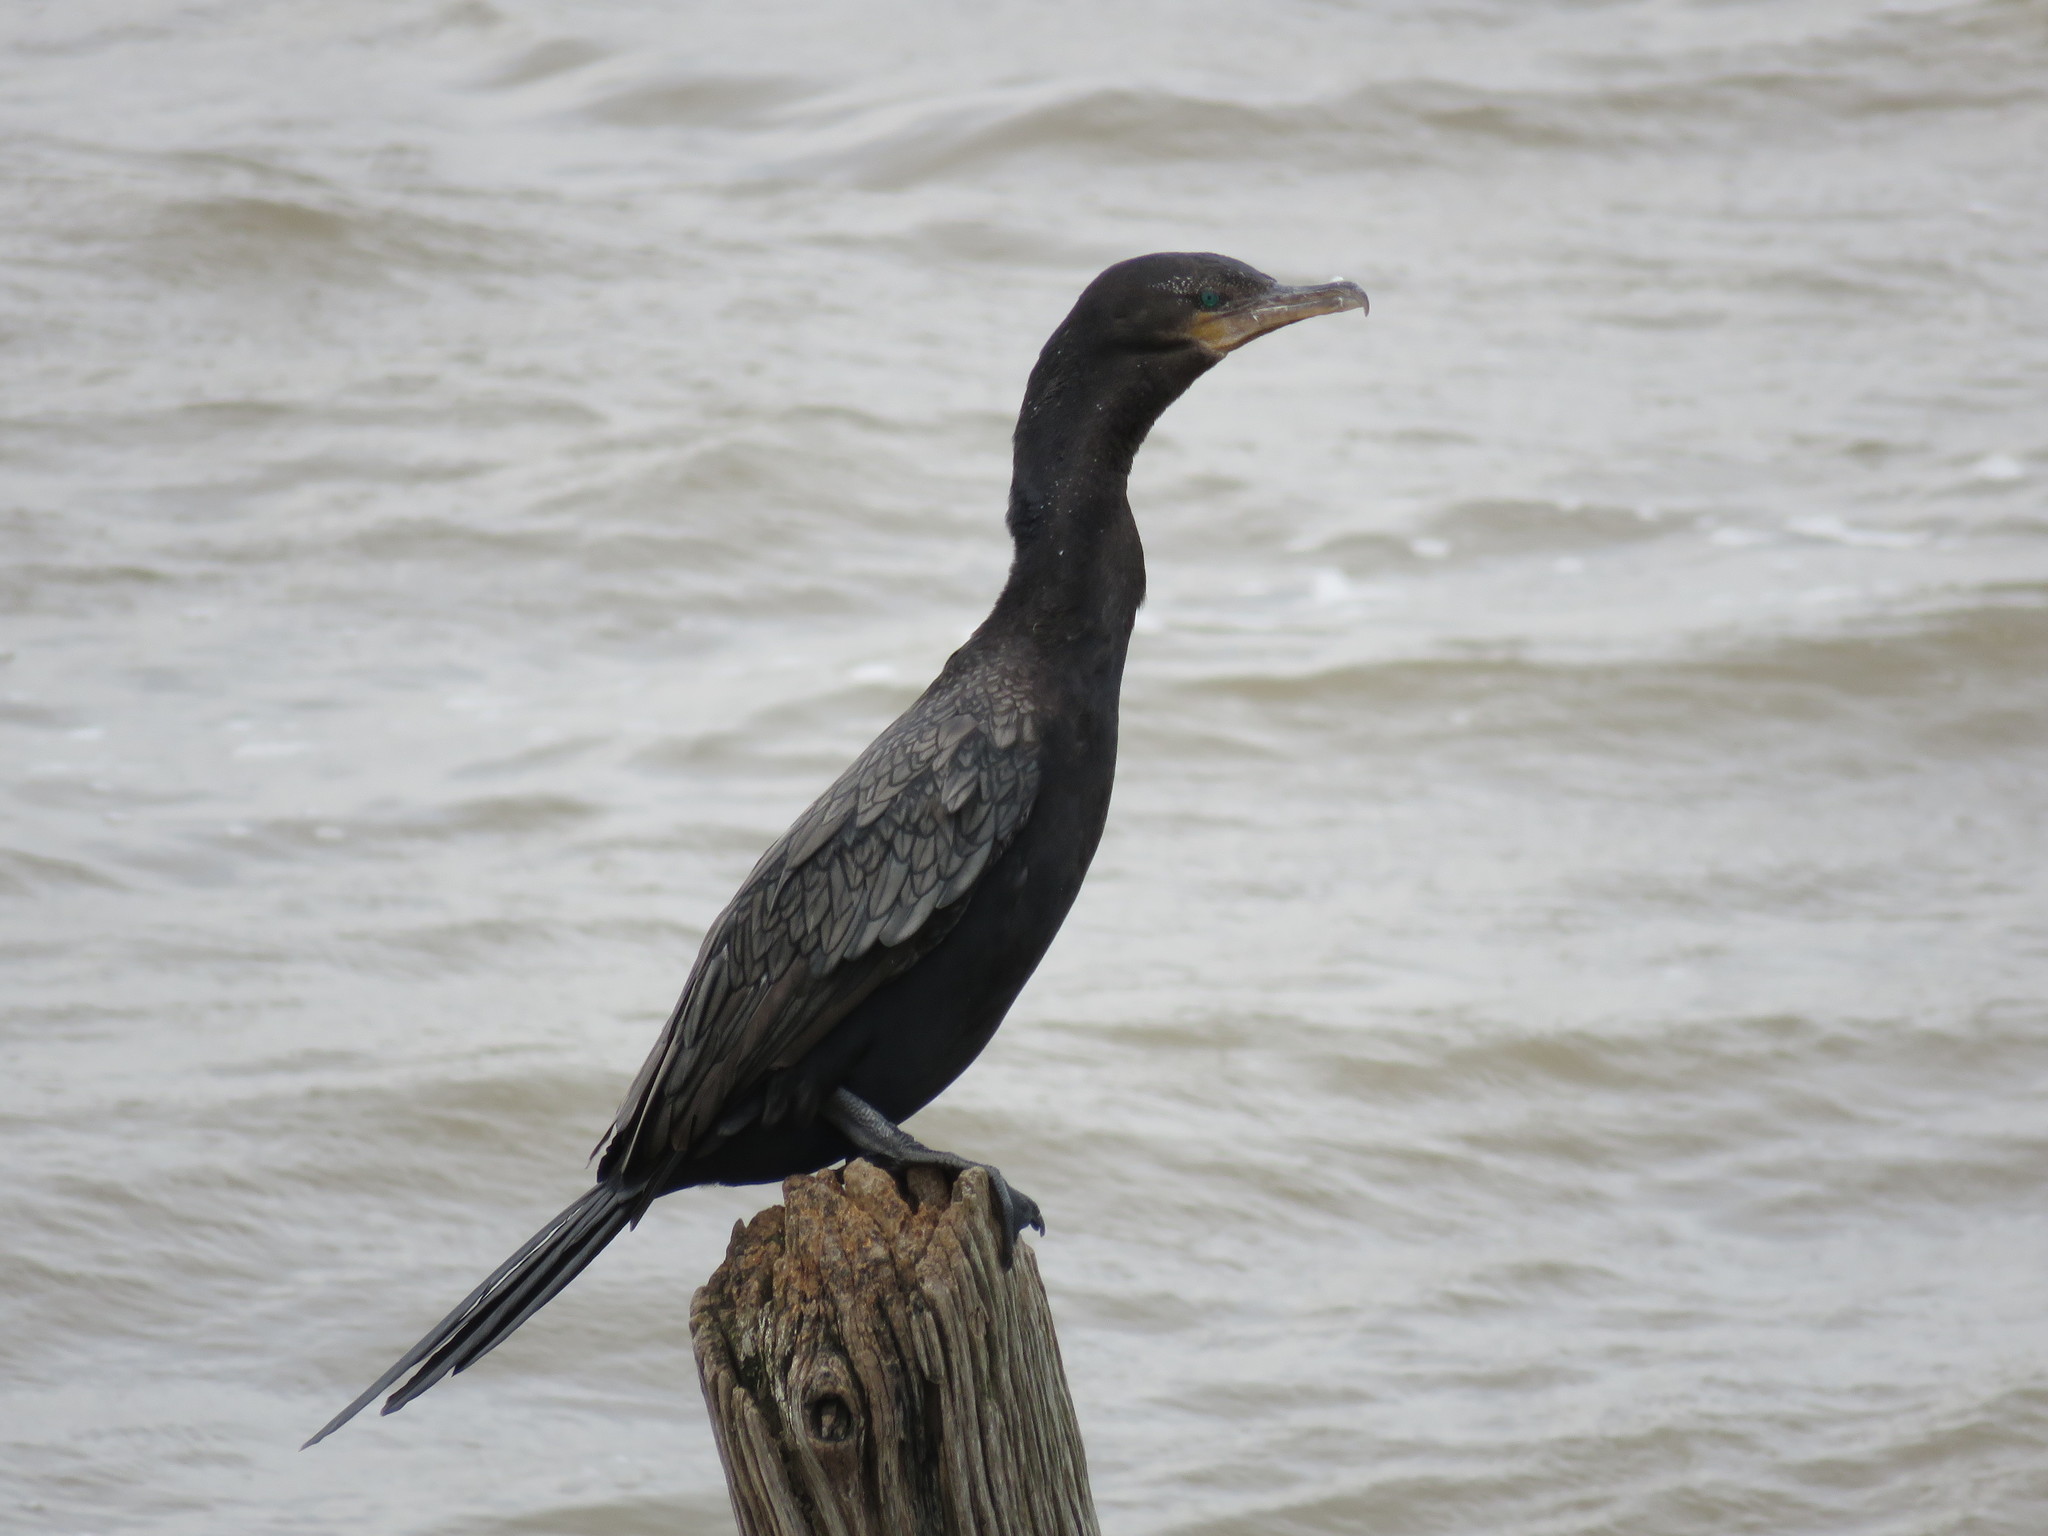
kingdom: Animalia
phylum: Chordata
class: Aves
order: Suliformes
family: Phalacrocoracidae
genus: Phalacrocorax
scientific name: Phalacrocorax brasilianus
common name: Neotropic cormorant
